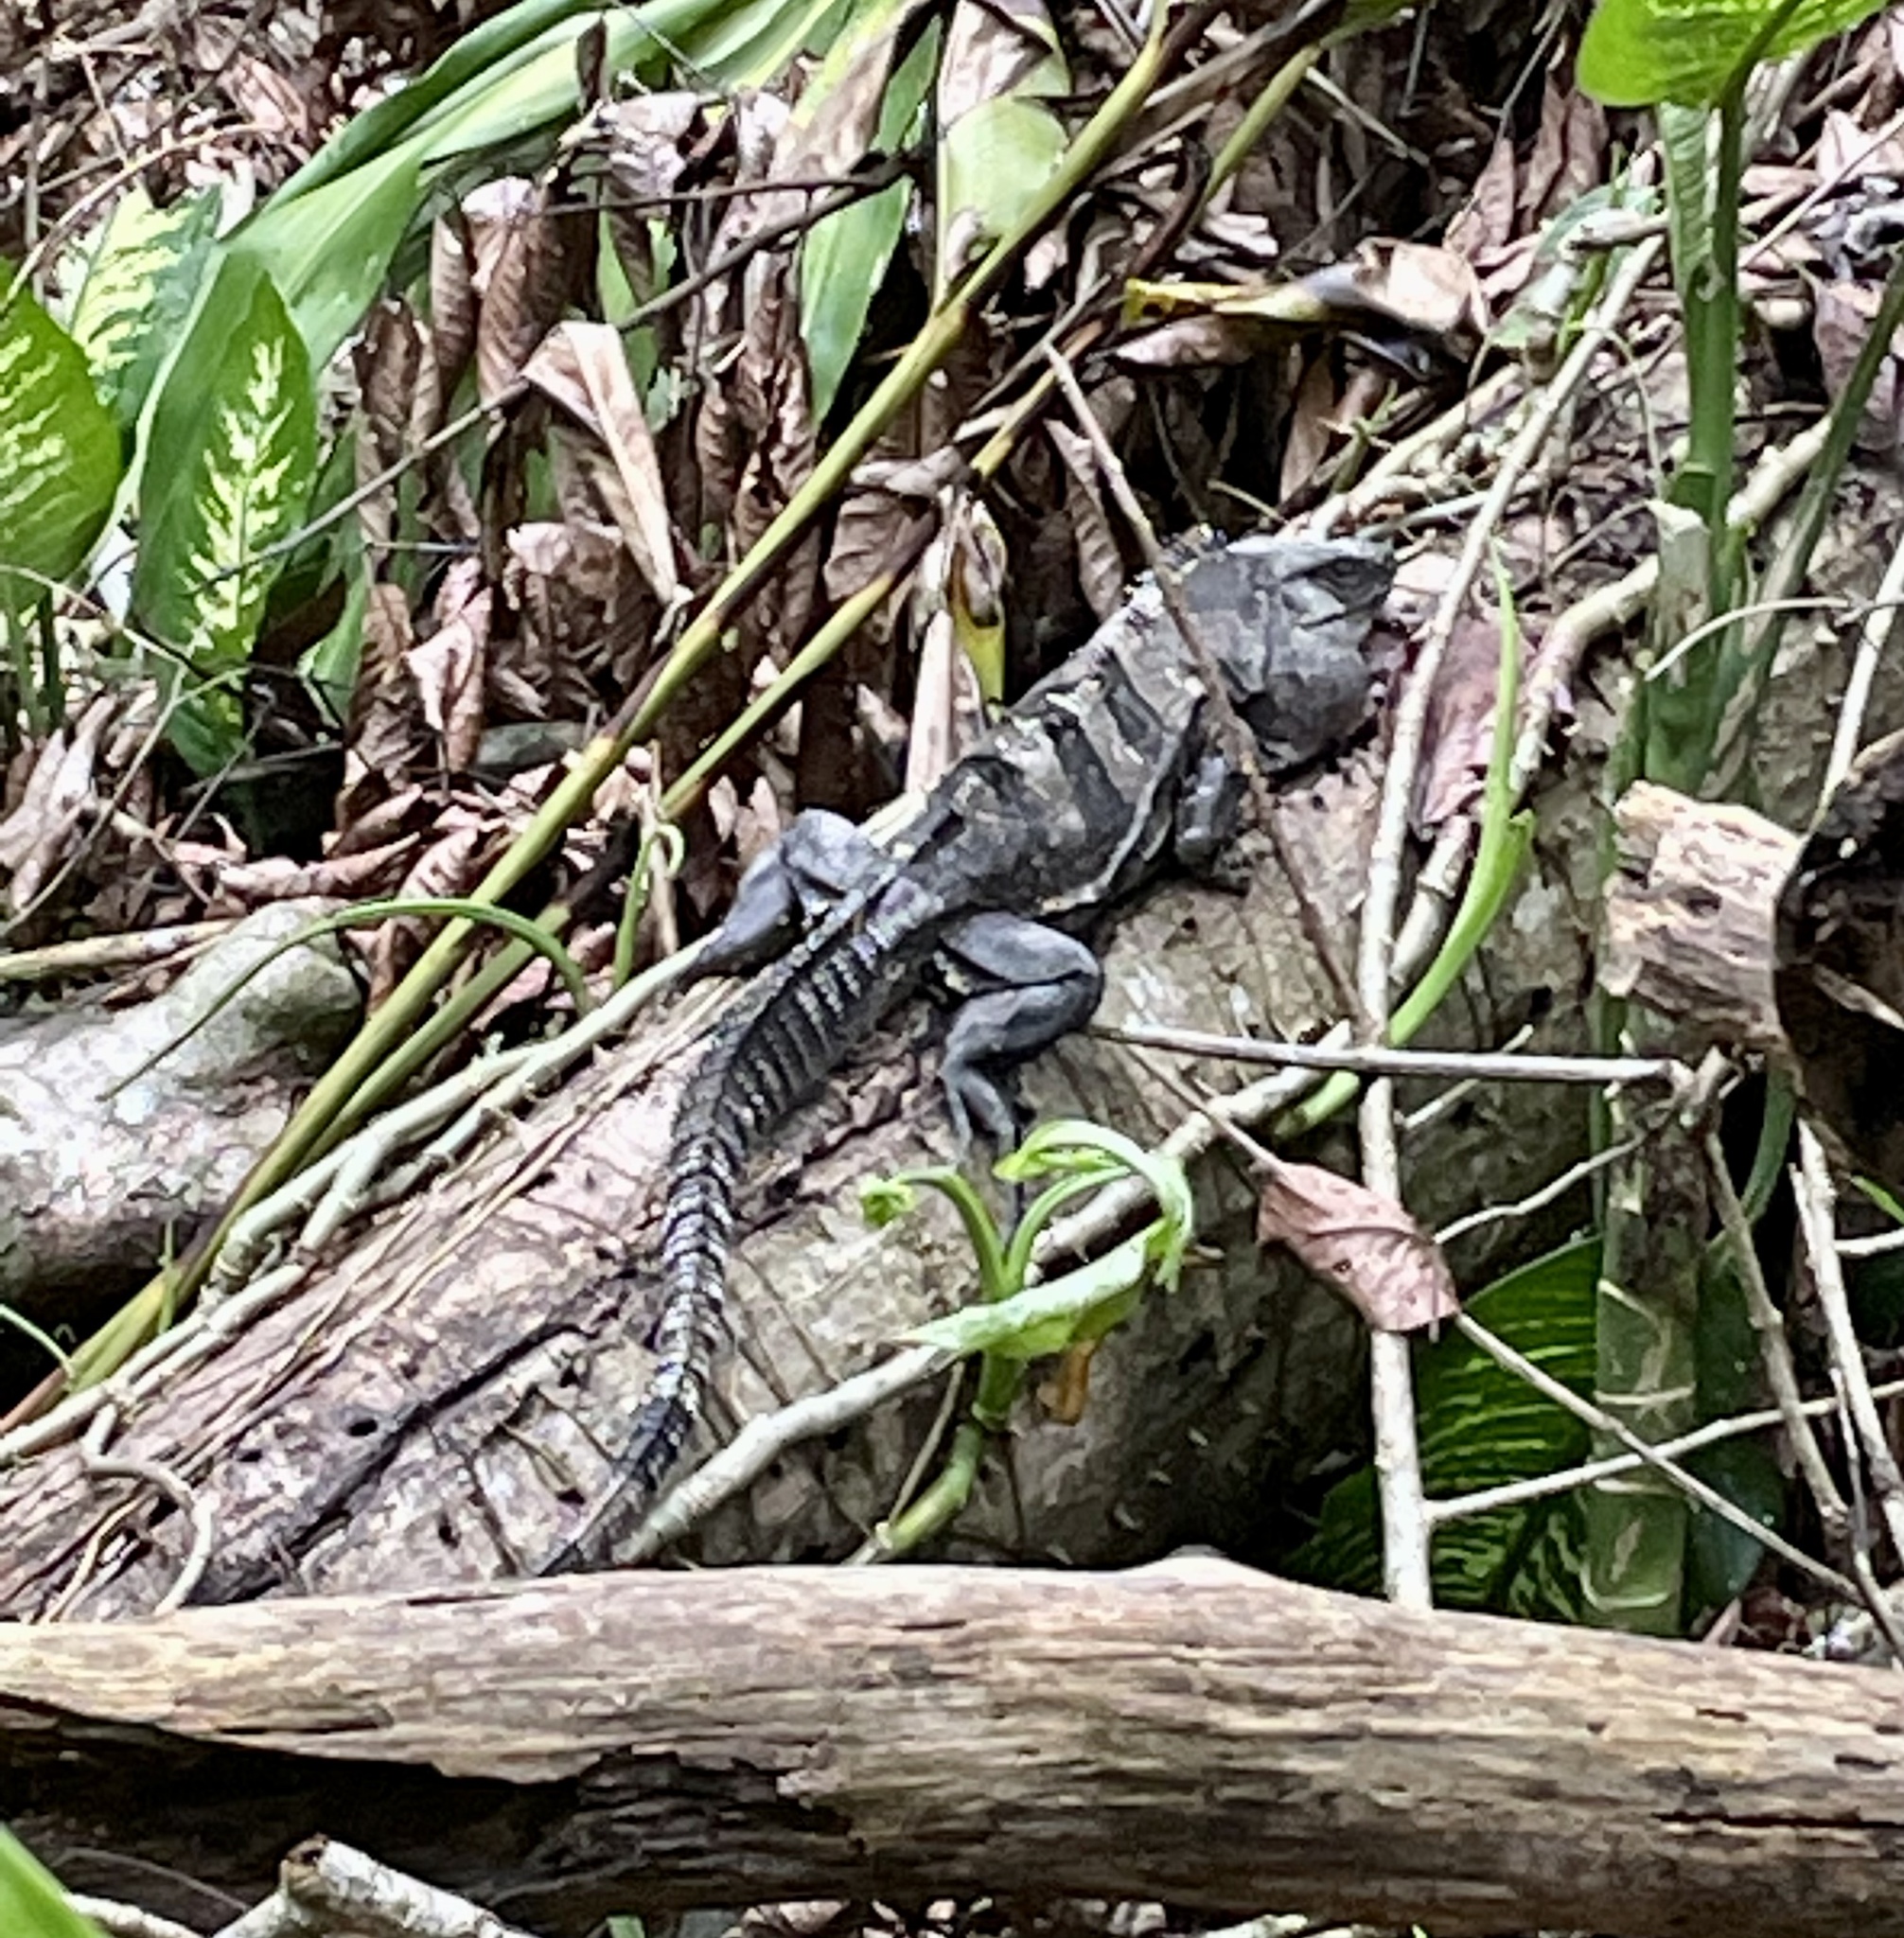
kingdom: Animalia
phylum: Chordata
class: Squamata
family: Iguanidae
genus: Ctenosaura
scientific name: Ctenosaura similis
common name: Black spiny-tailed iguana
